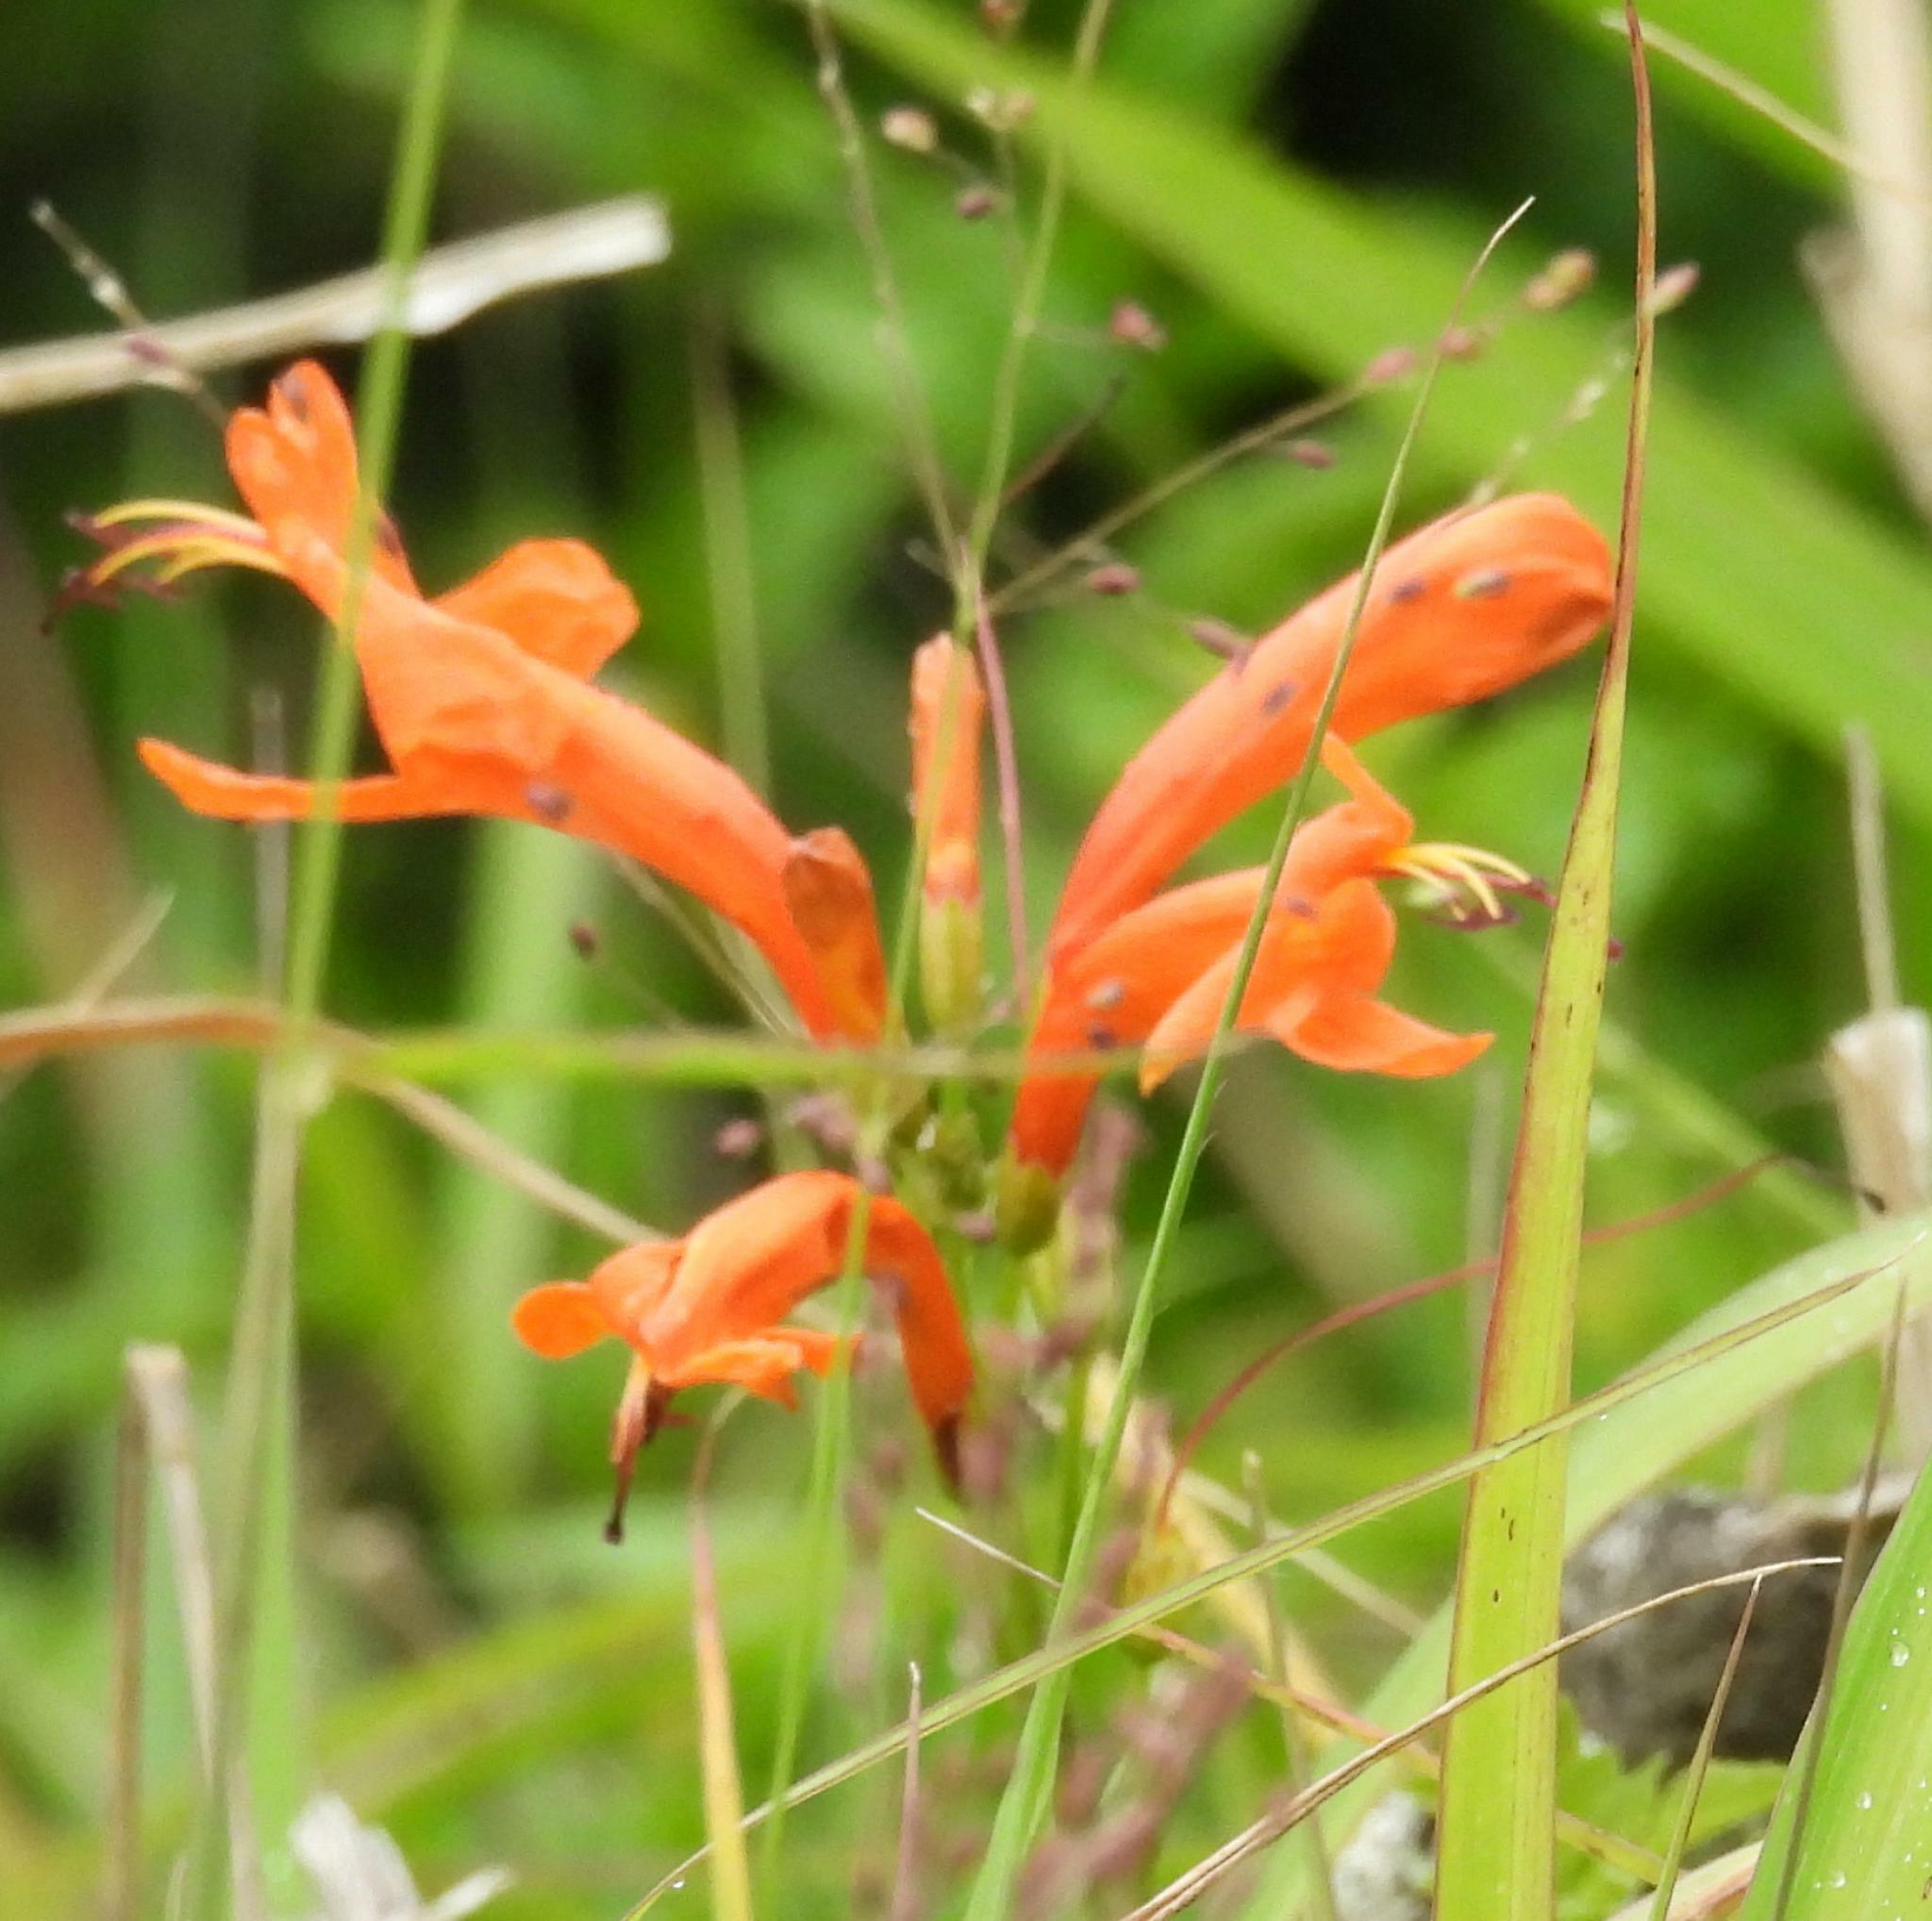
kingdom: Plantae
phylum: Tracheophyta
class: Magnoliopsida
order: Lamiales
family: Bignoniaceae
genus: Tecomaria
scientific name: Tecomaria capensis
